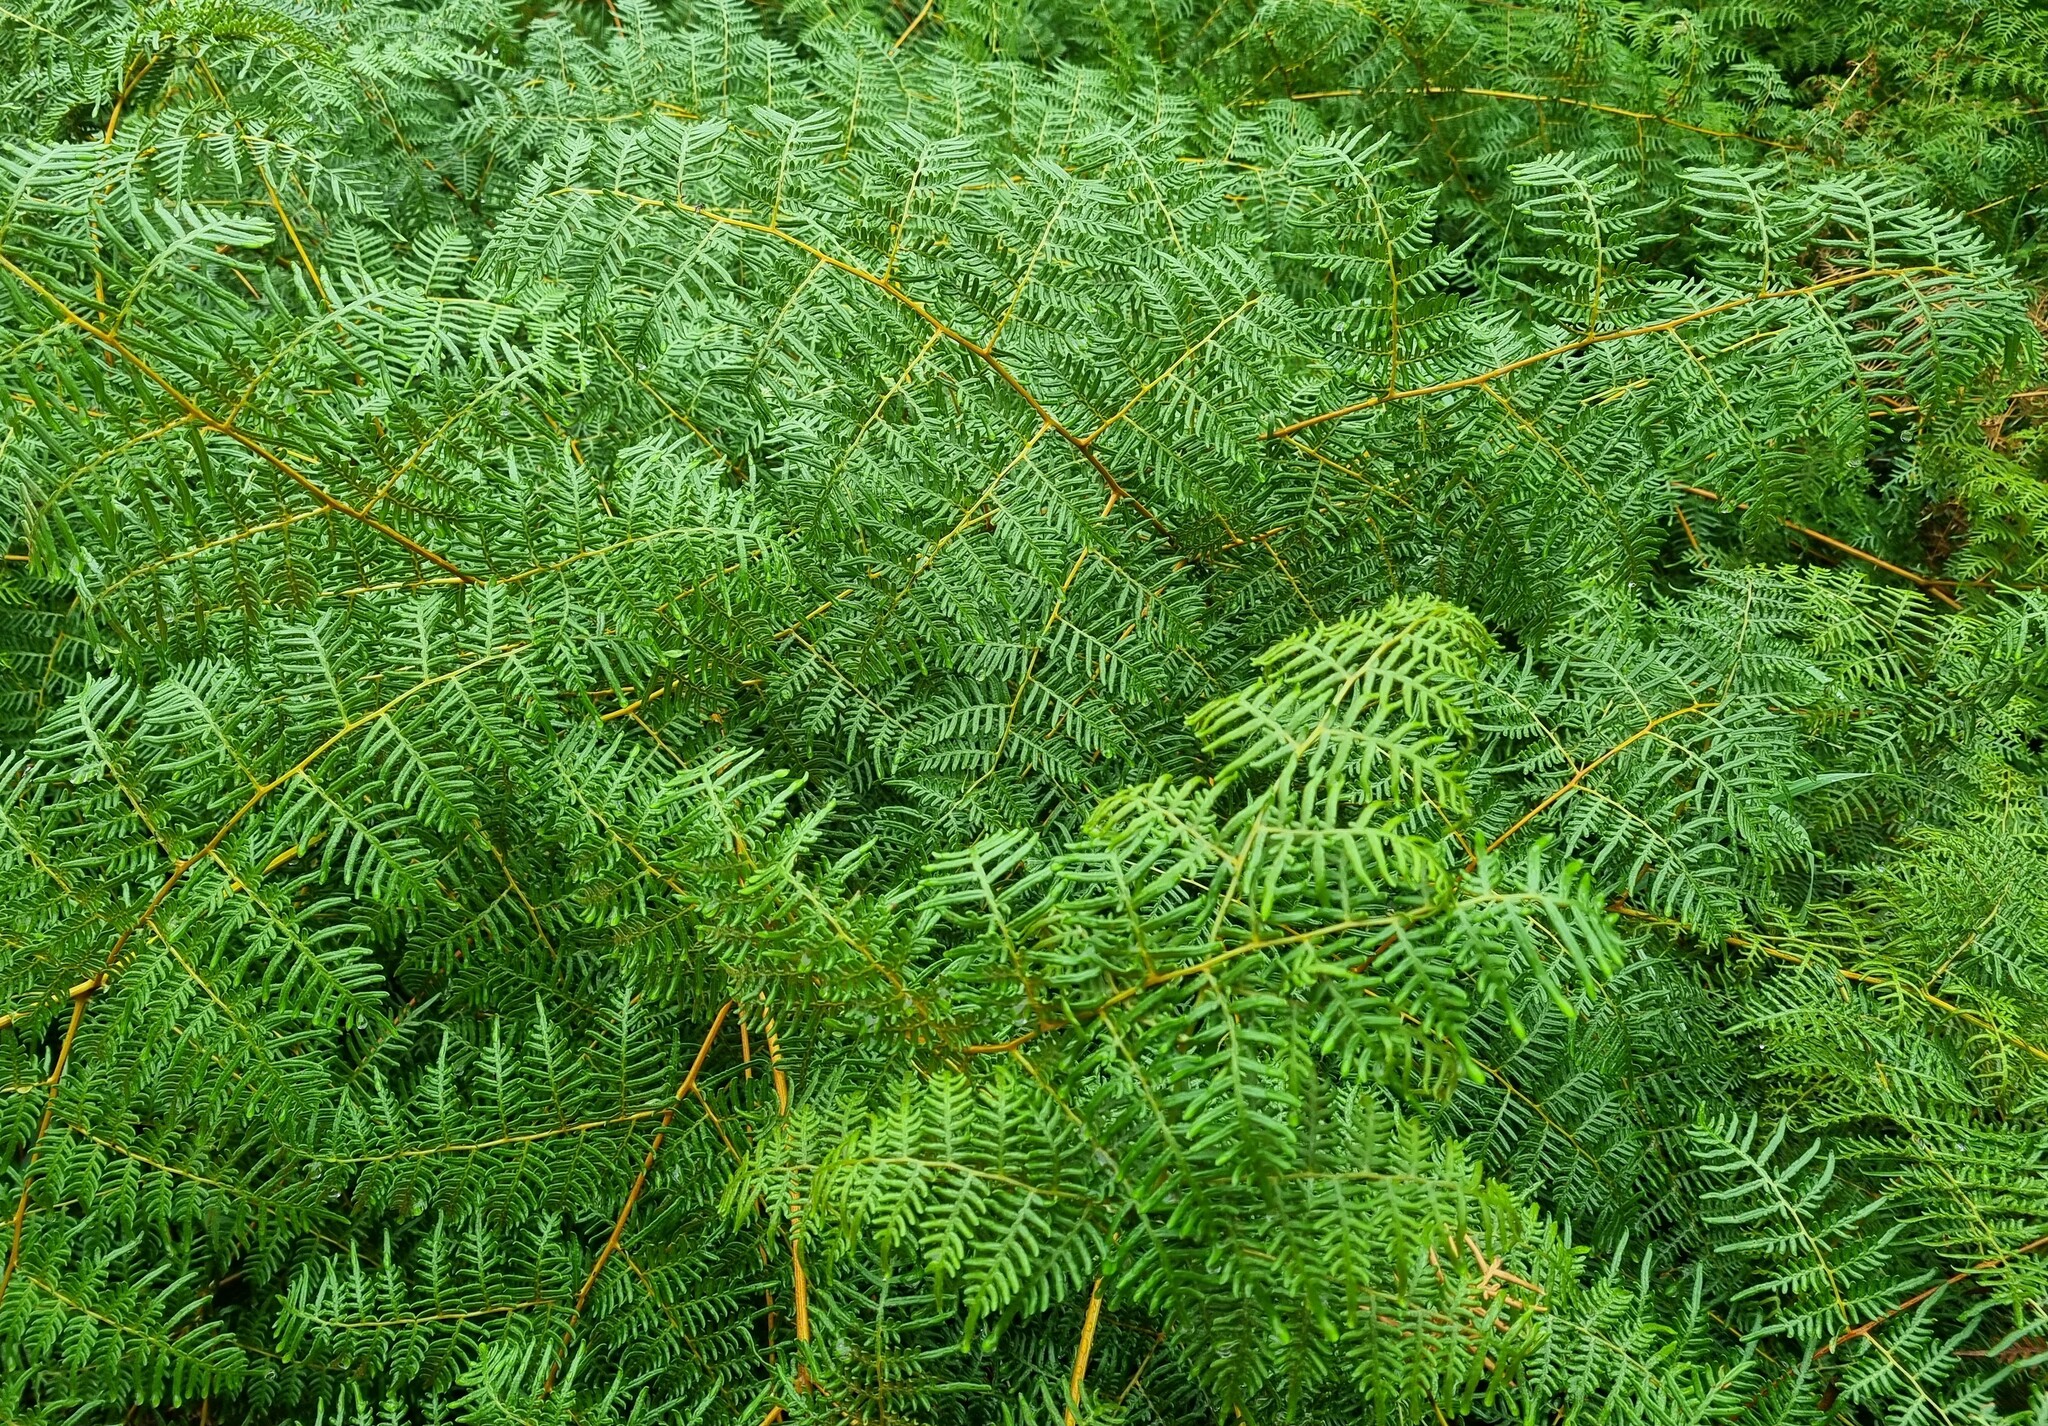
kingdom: Plantae
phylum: Tracheophyta
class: Polypodiopsida
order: Polypodiales
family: Dennstaedtiaceae
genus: Pteridium
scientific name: Pteridium esculentum
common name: Bracken fern
